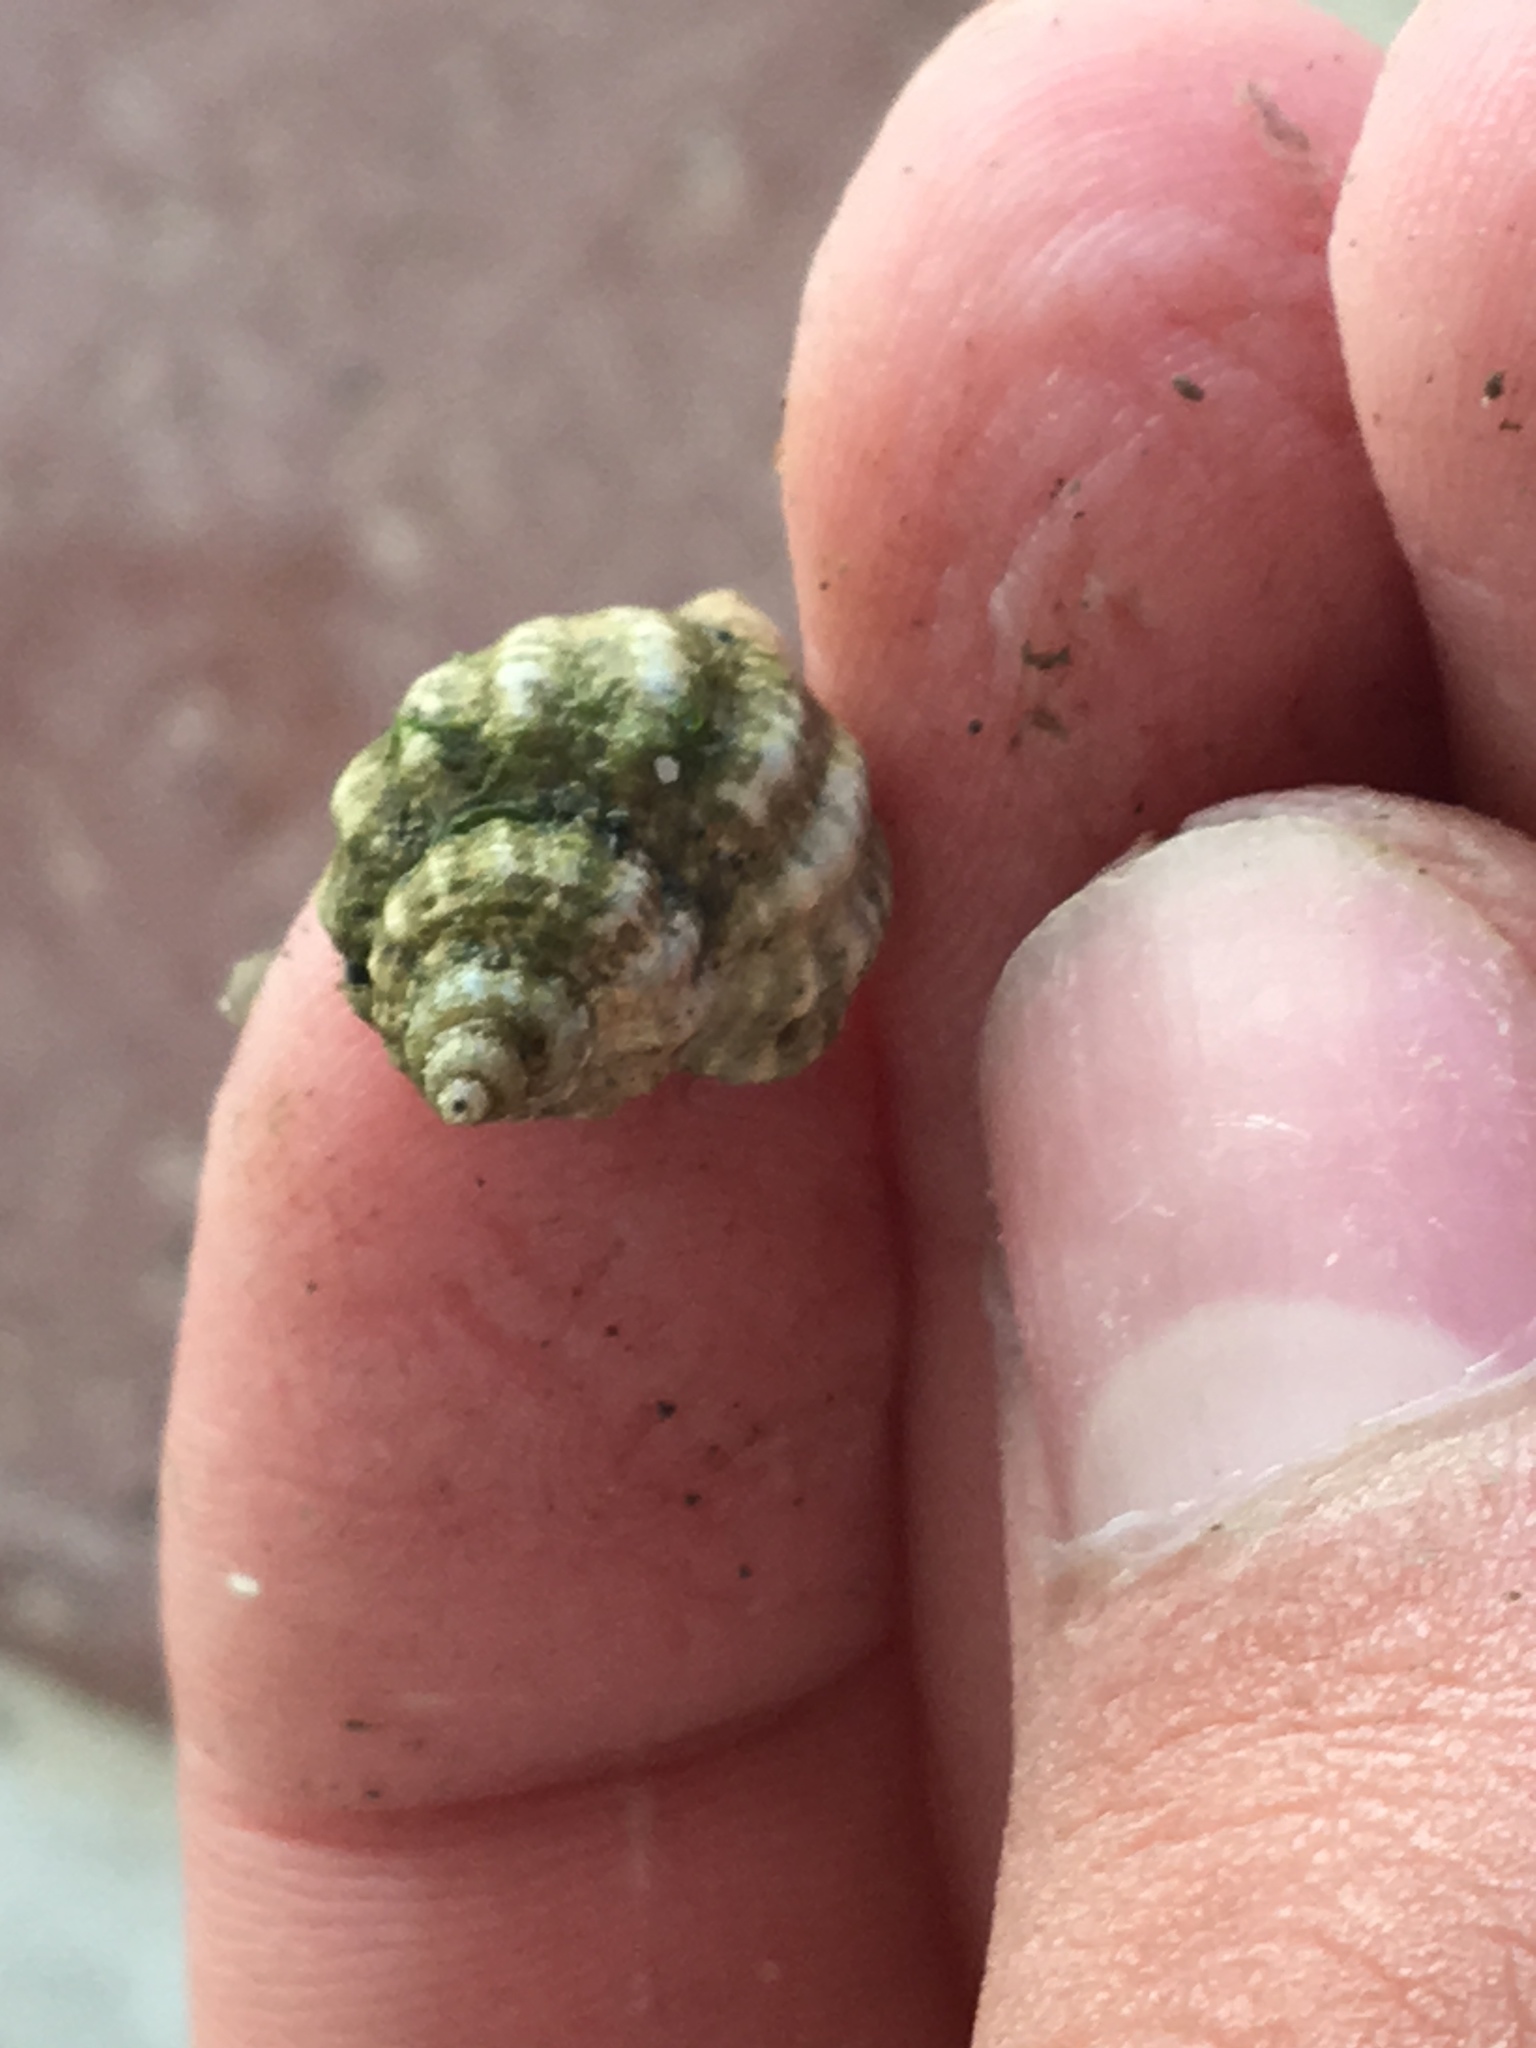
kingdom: Animalia
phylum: Mollusca
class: Gastropoda
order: Neogastropoda
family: Muricidae
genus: Urosalpinx
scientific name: Urosalpinx cinerea
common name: American sting winkle
